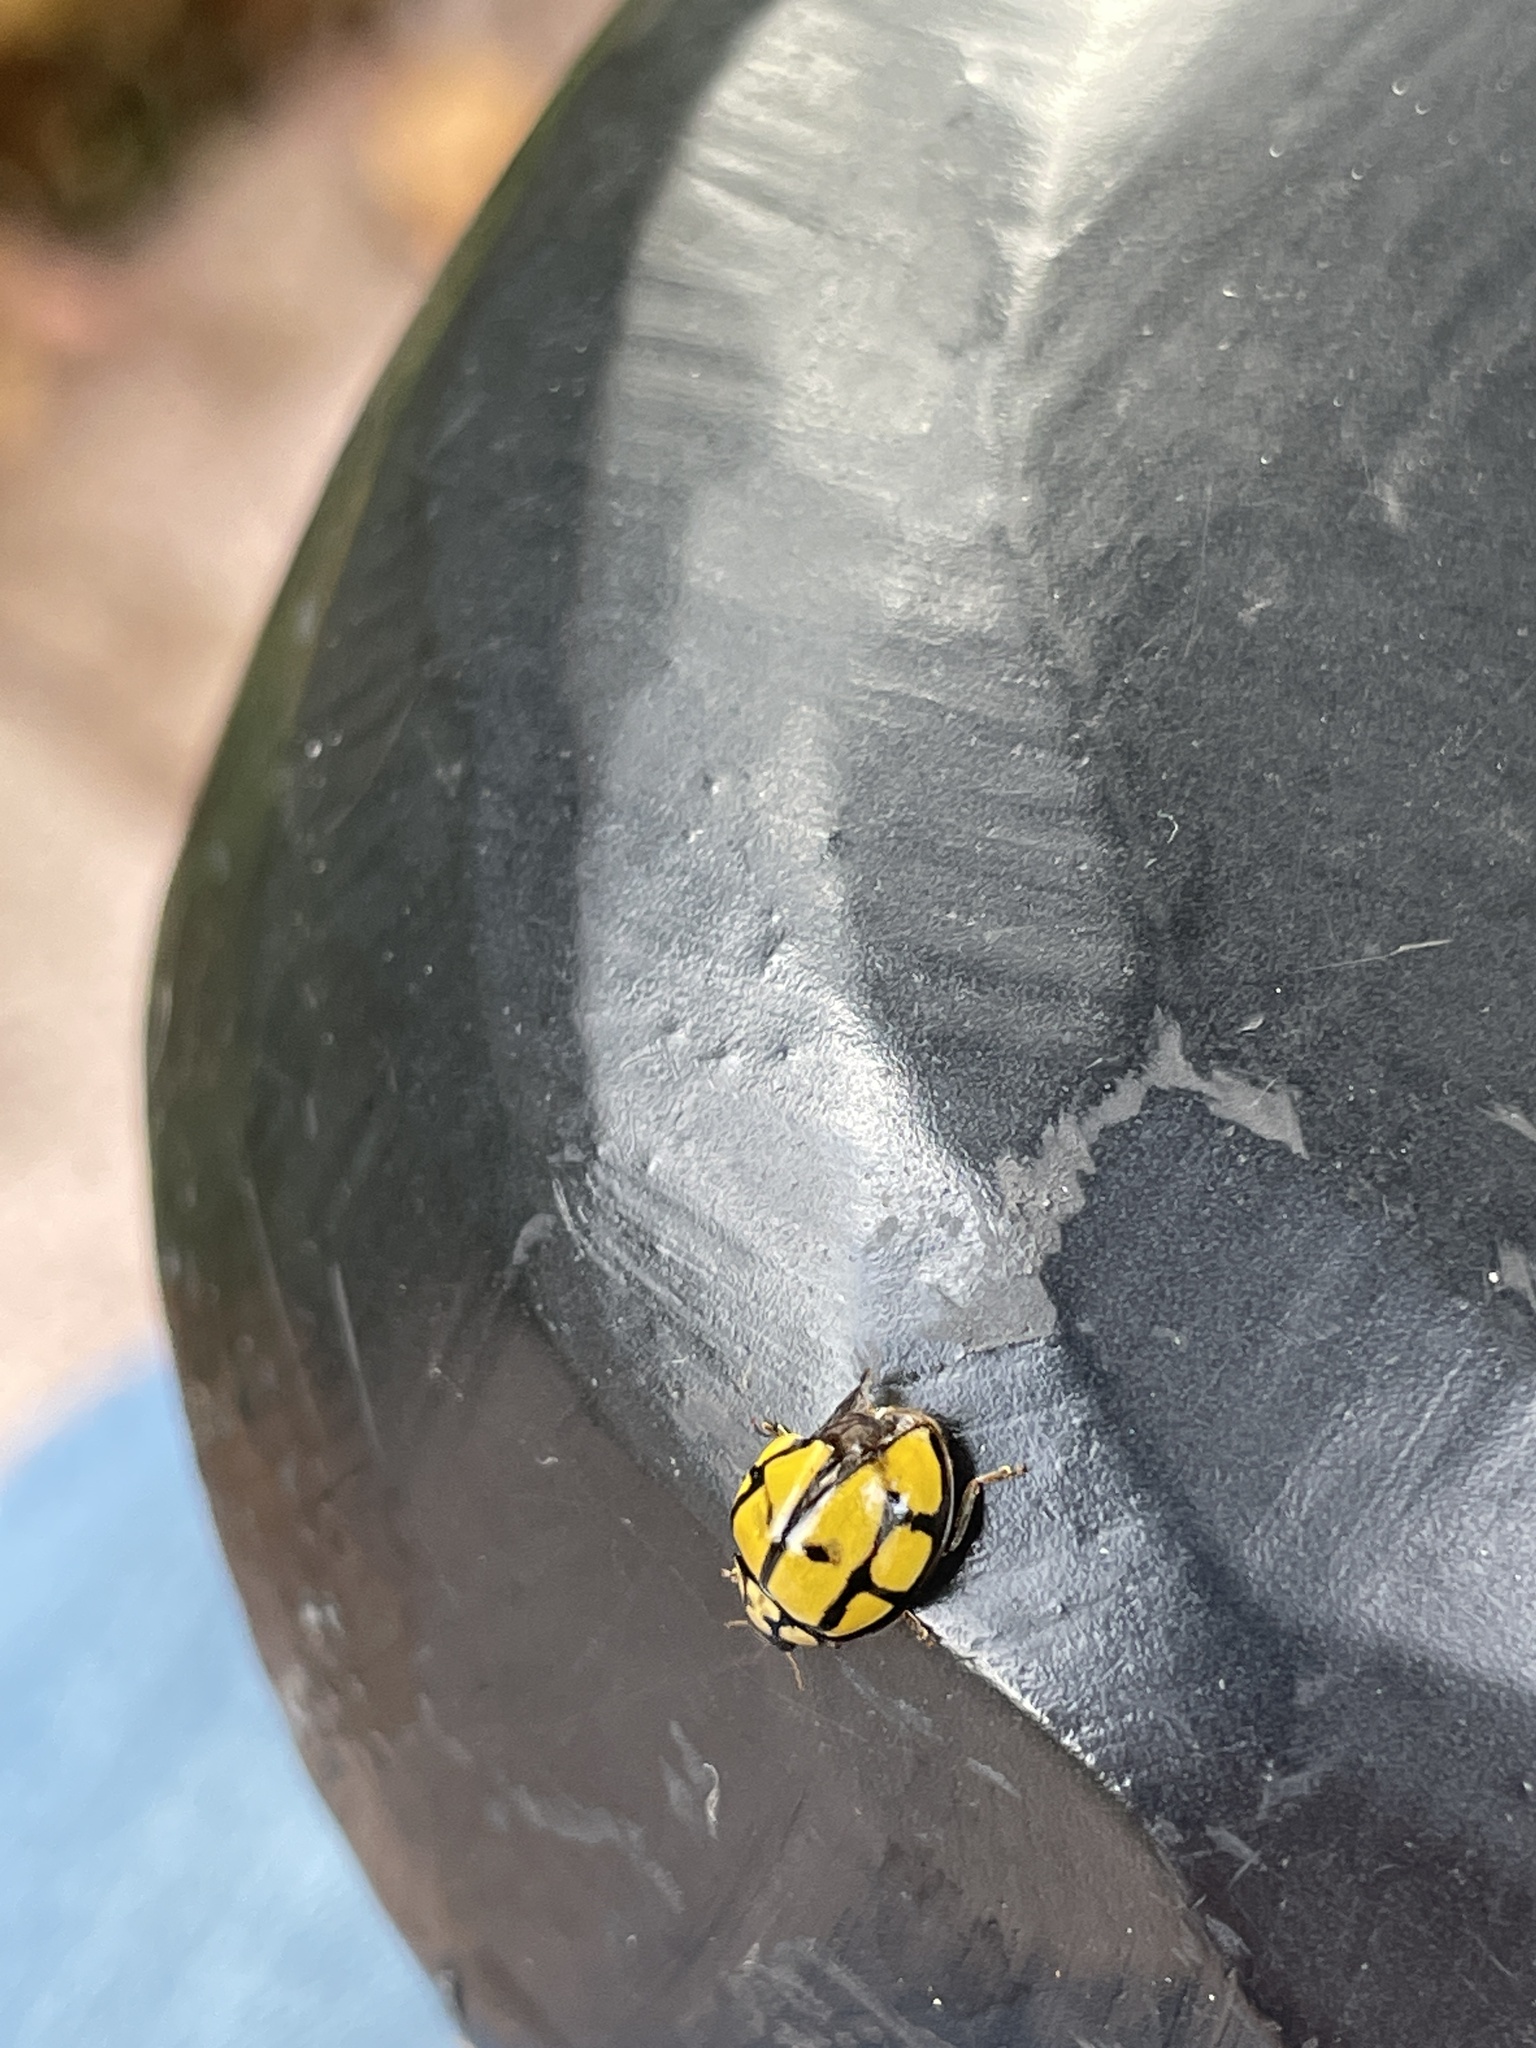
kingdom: Animalia
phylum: Arthropoda
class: Insecta
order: Coleoptera
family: Coccinellidae
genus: Harmonia
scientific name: Harmonia
